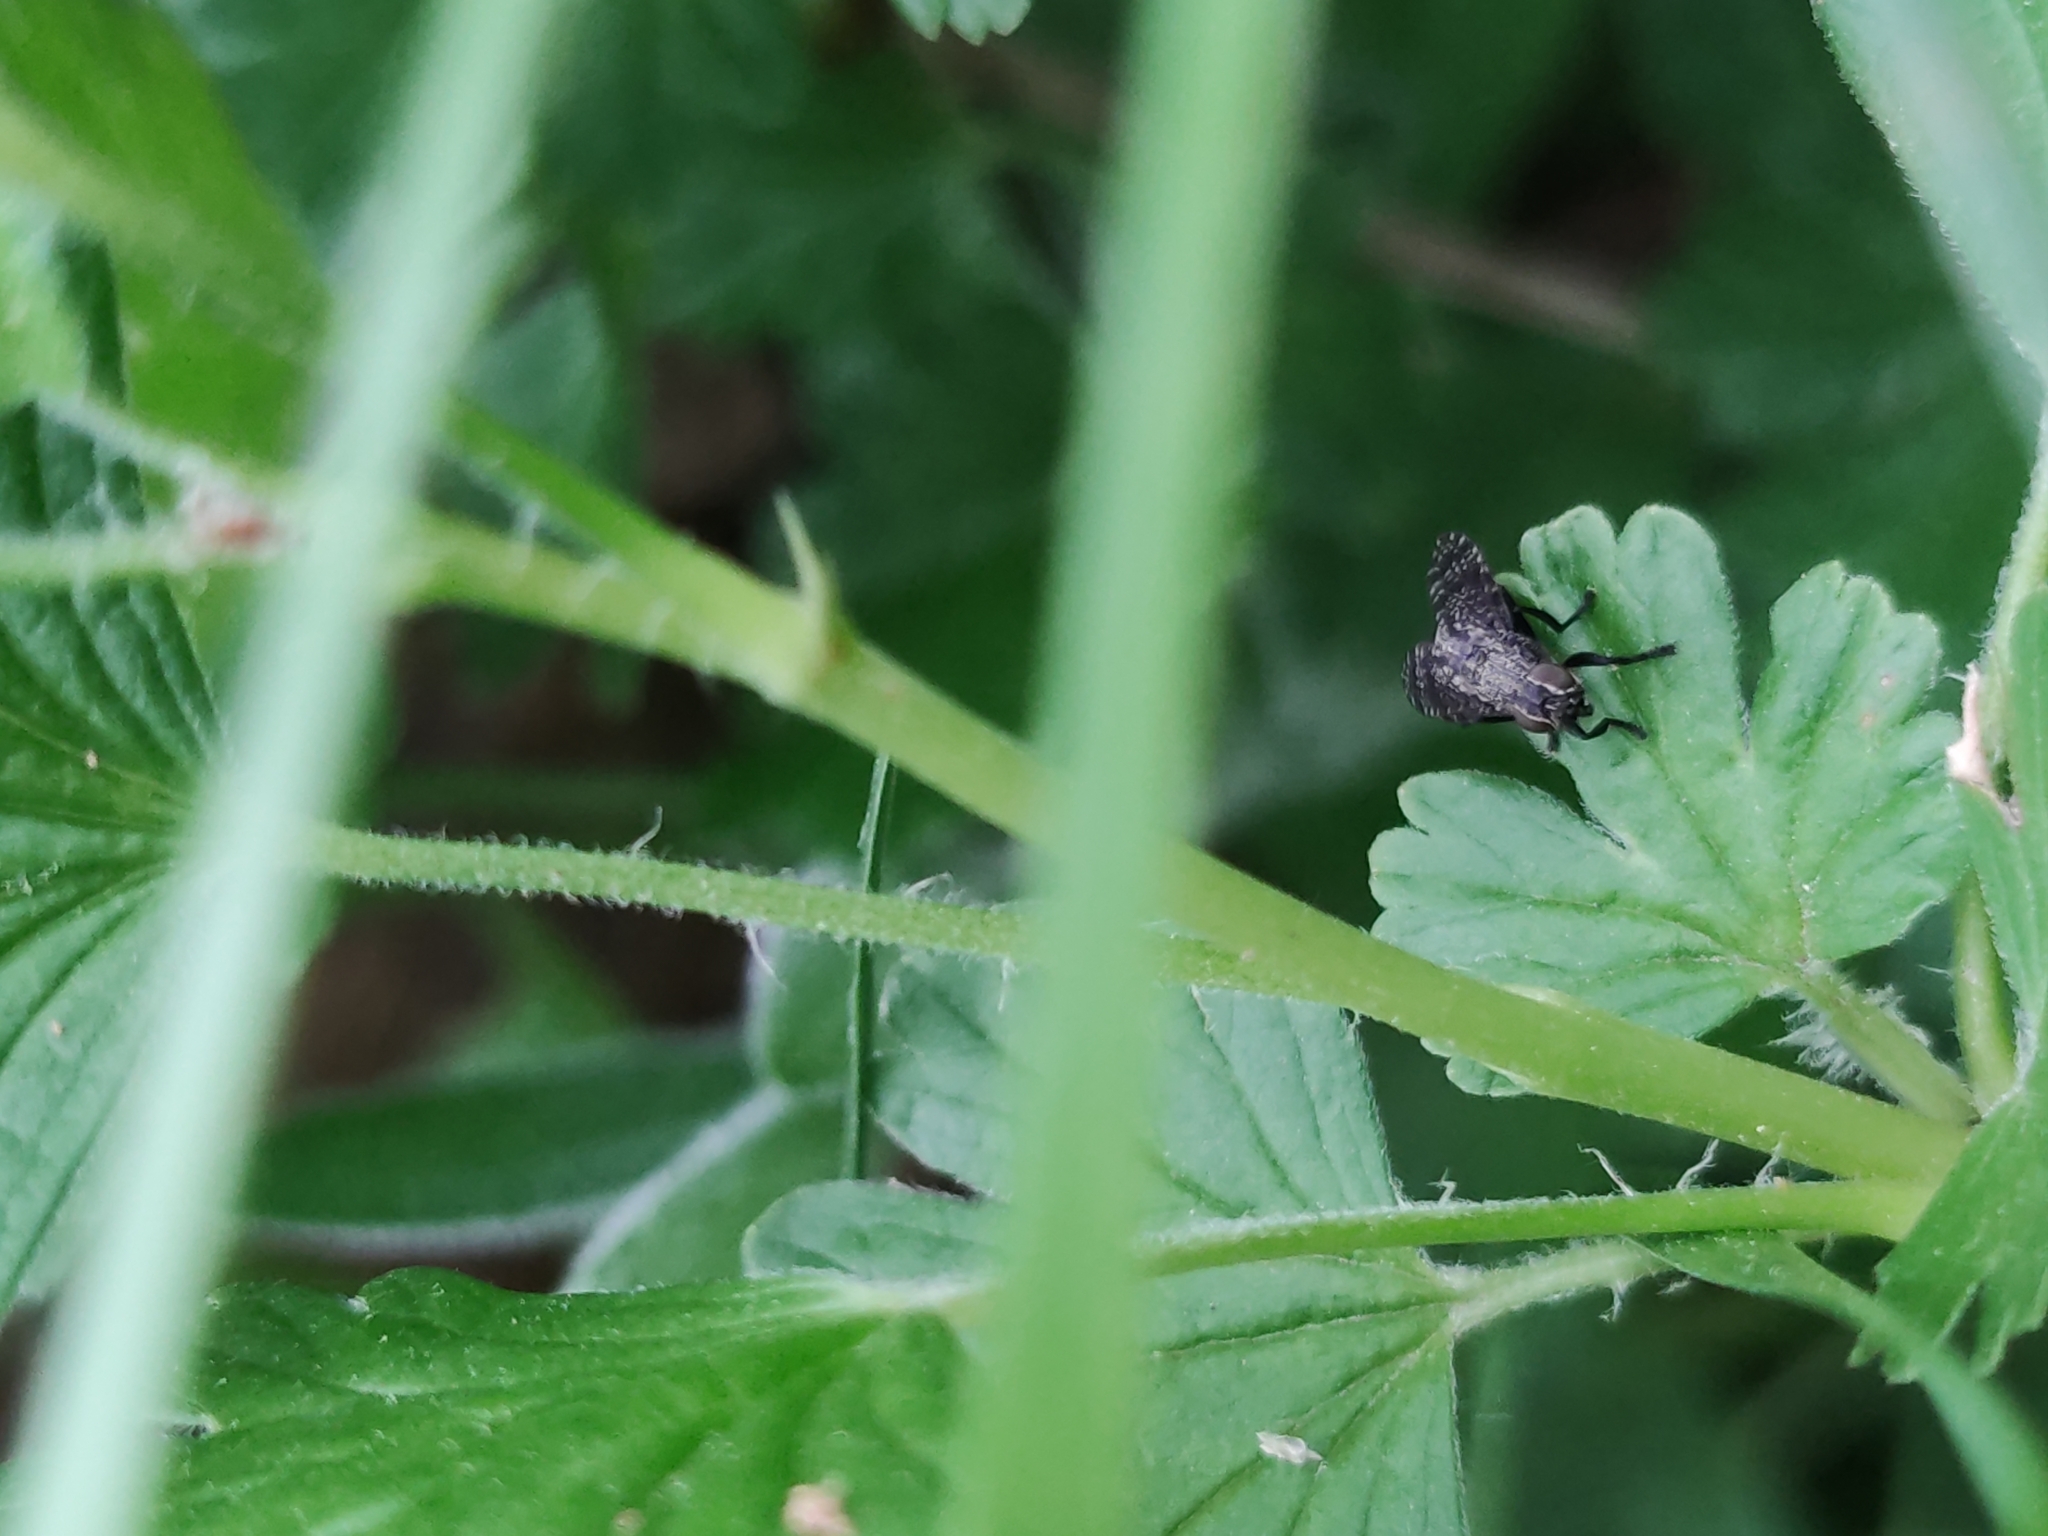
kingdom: Animalia
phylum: Arthropoda
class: Insecta
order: Diptera
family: Platystomatidae
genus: Platystoma
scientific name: Platystoma seminationis
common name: Fly
